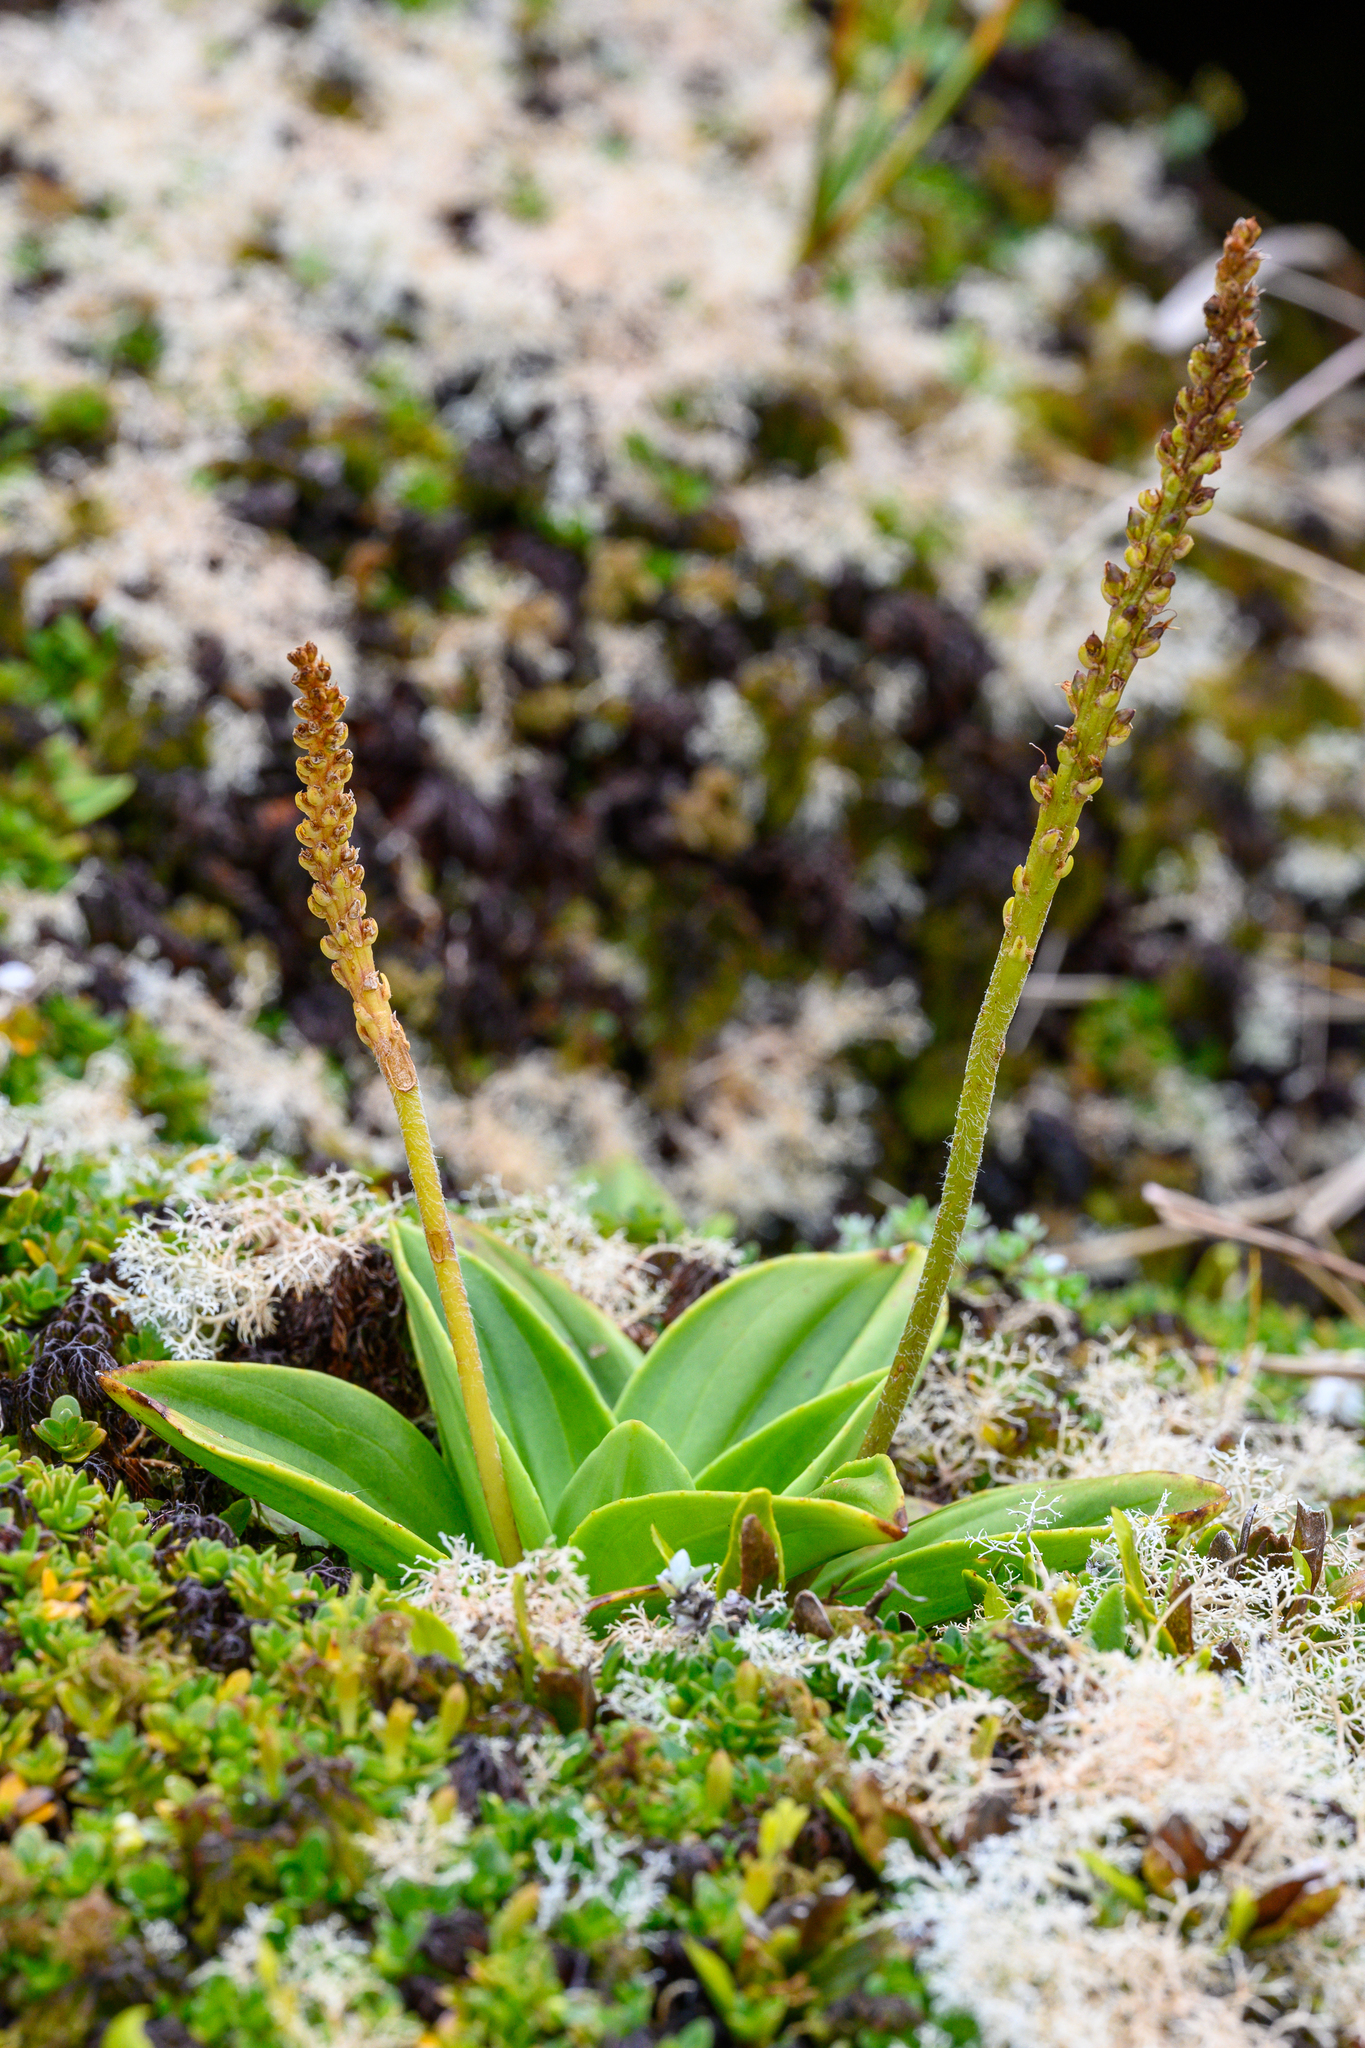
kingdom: Plantae
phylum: Tracheophyta
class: Magnoliopsida
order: Lamiales
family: Plantaginaceae
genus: Plantago
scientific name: Plantago aucklandica
